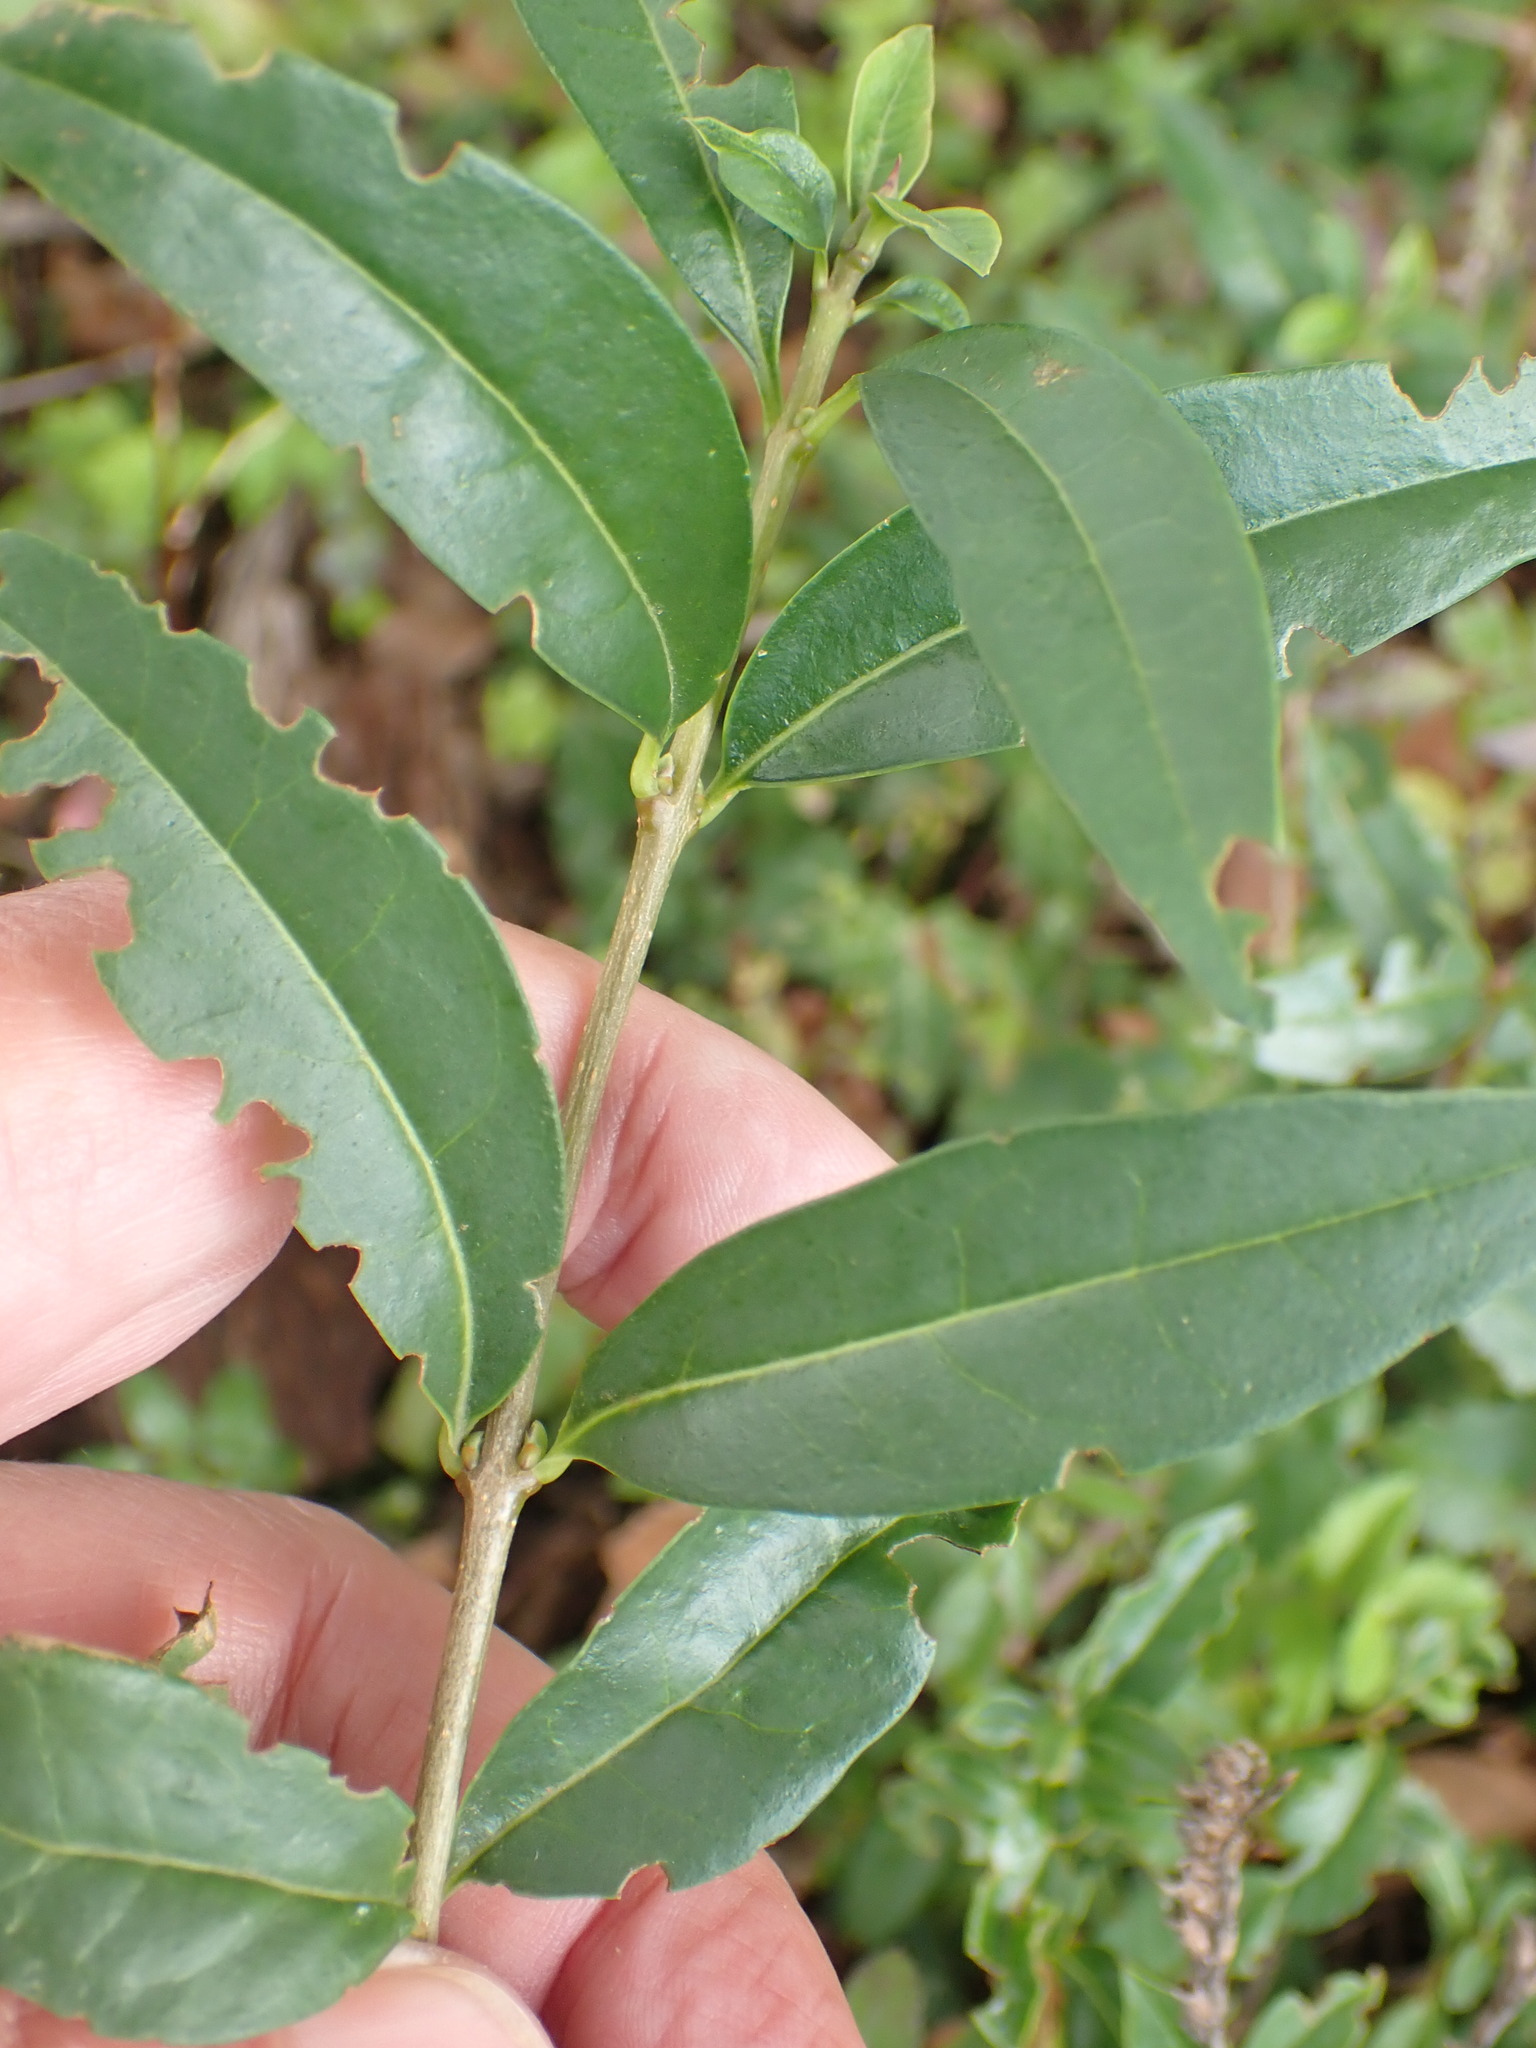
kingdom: Plantae
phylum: Tracheophyta
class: Magnoliopsida
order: Lamiales
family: Oleaceae
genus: Ligustrum
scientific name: Ligustrum vulgare
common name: Wild privet
